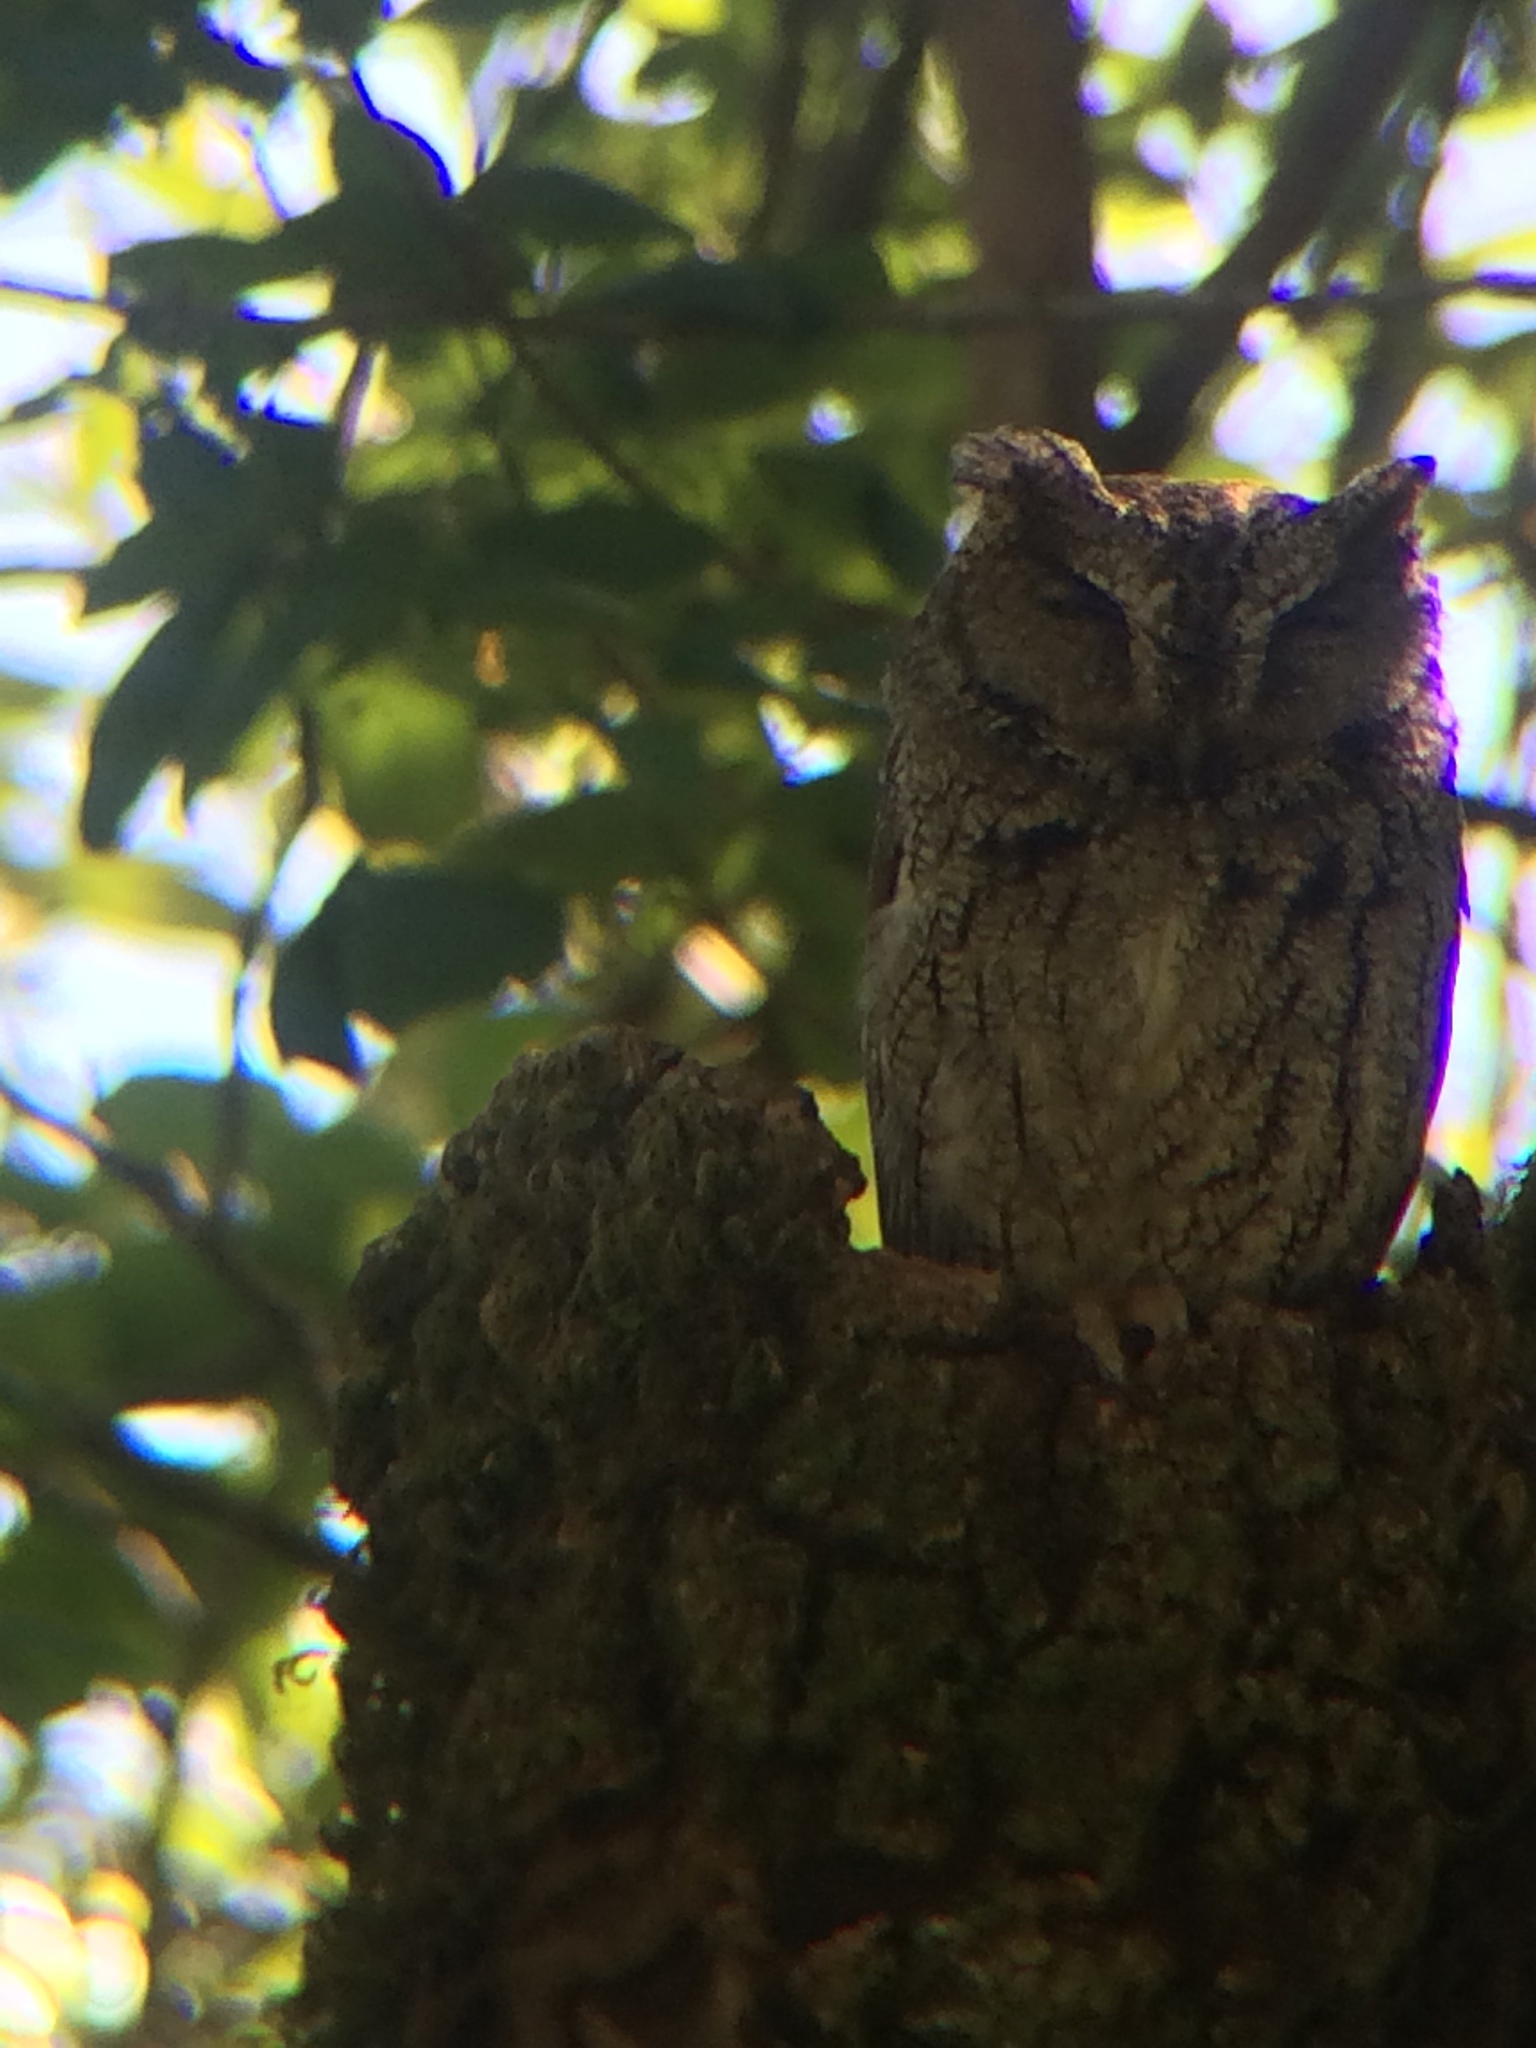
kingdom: Animalia
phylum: Chordata
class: Aves
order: Strigiformes
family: Strigidae
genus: Megascops
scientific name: Megascops kennicottii
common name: Western screech-owl
